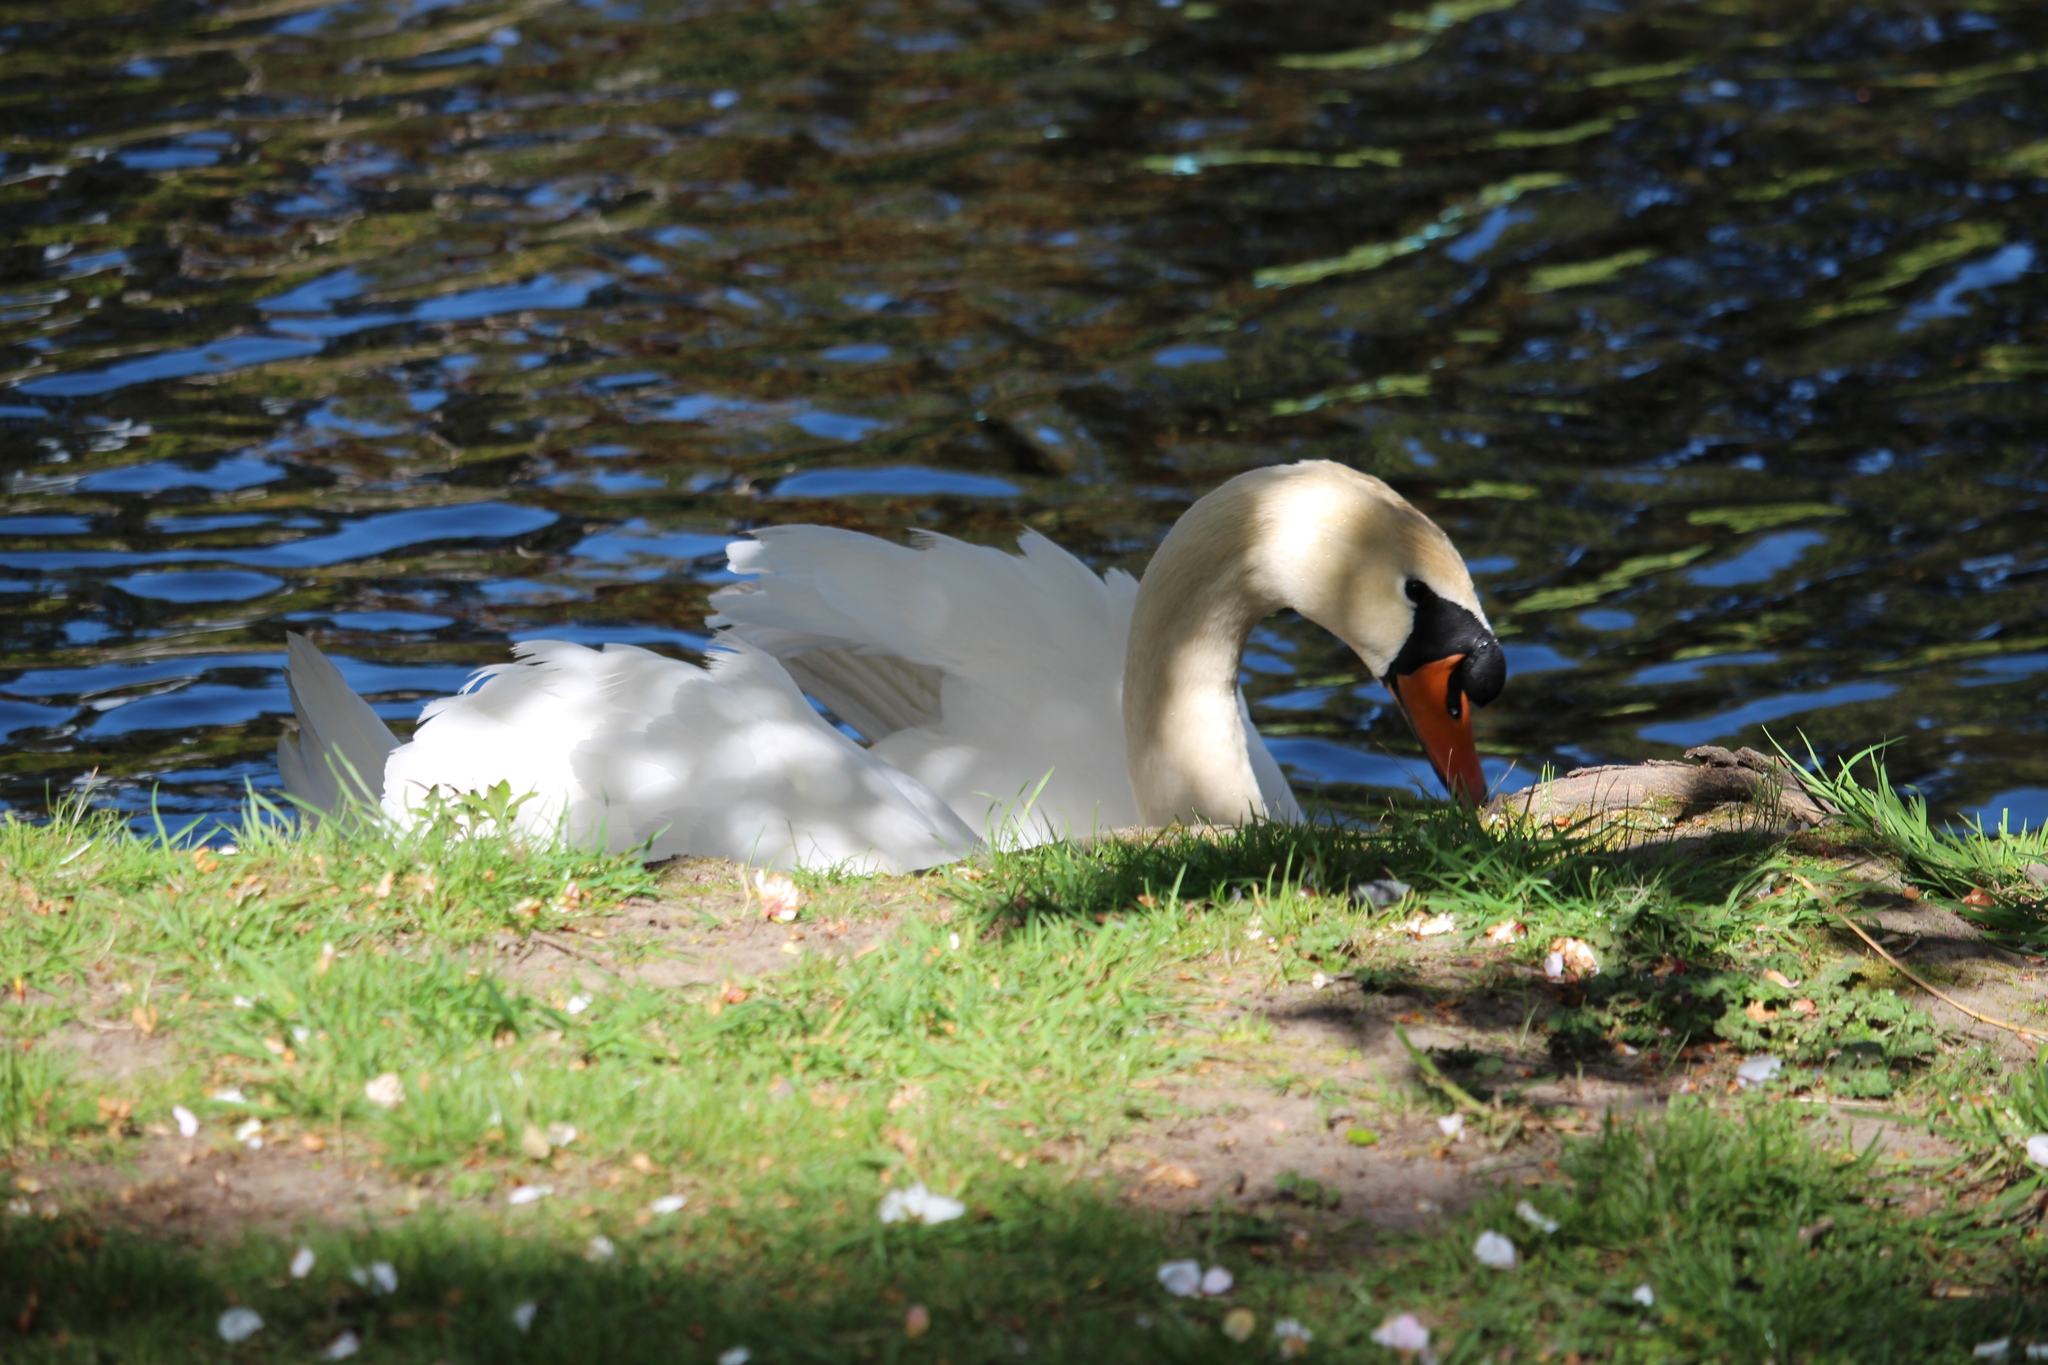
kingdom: Animalia
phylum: Chordata
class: Aves
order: Anseriformes
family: Anatidae
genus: Cygnus
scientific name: Cygnus olor
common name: Mute swan
